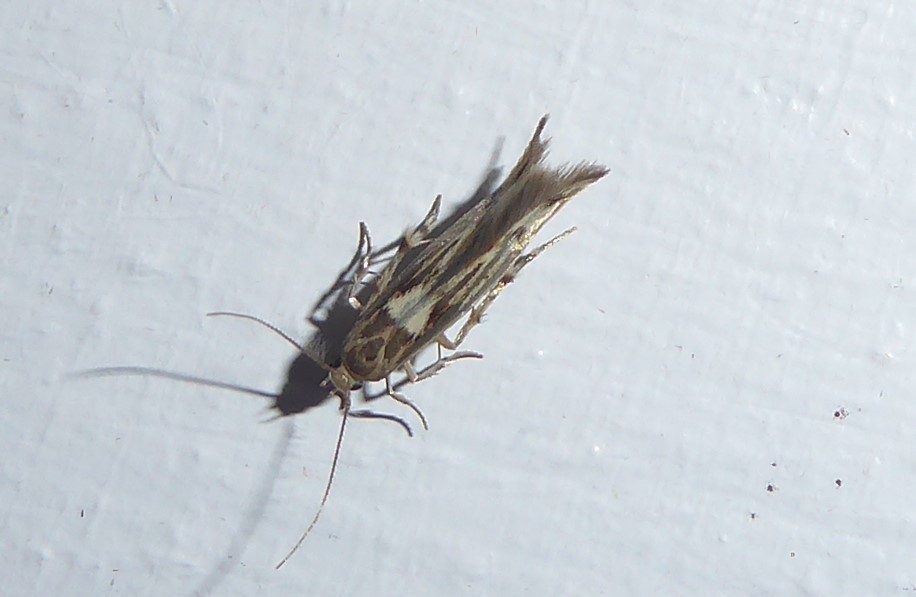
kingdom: Animalia
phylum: Arthropoda
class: Insecta
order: Lepidoptera
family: Stathmopodidae
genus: Stathmopoda
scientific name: Stathmopoda plumbiflua
